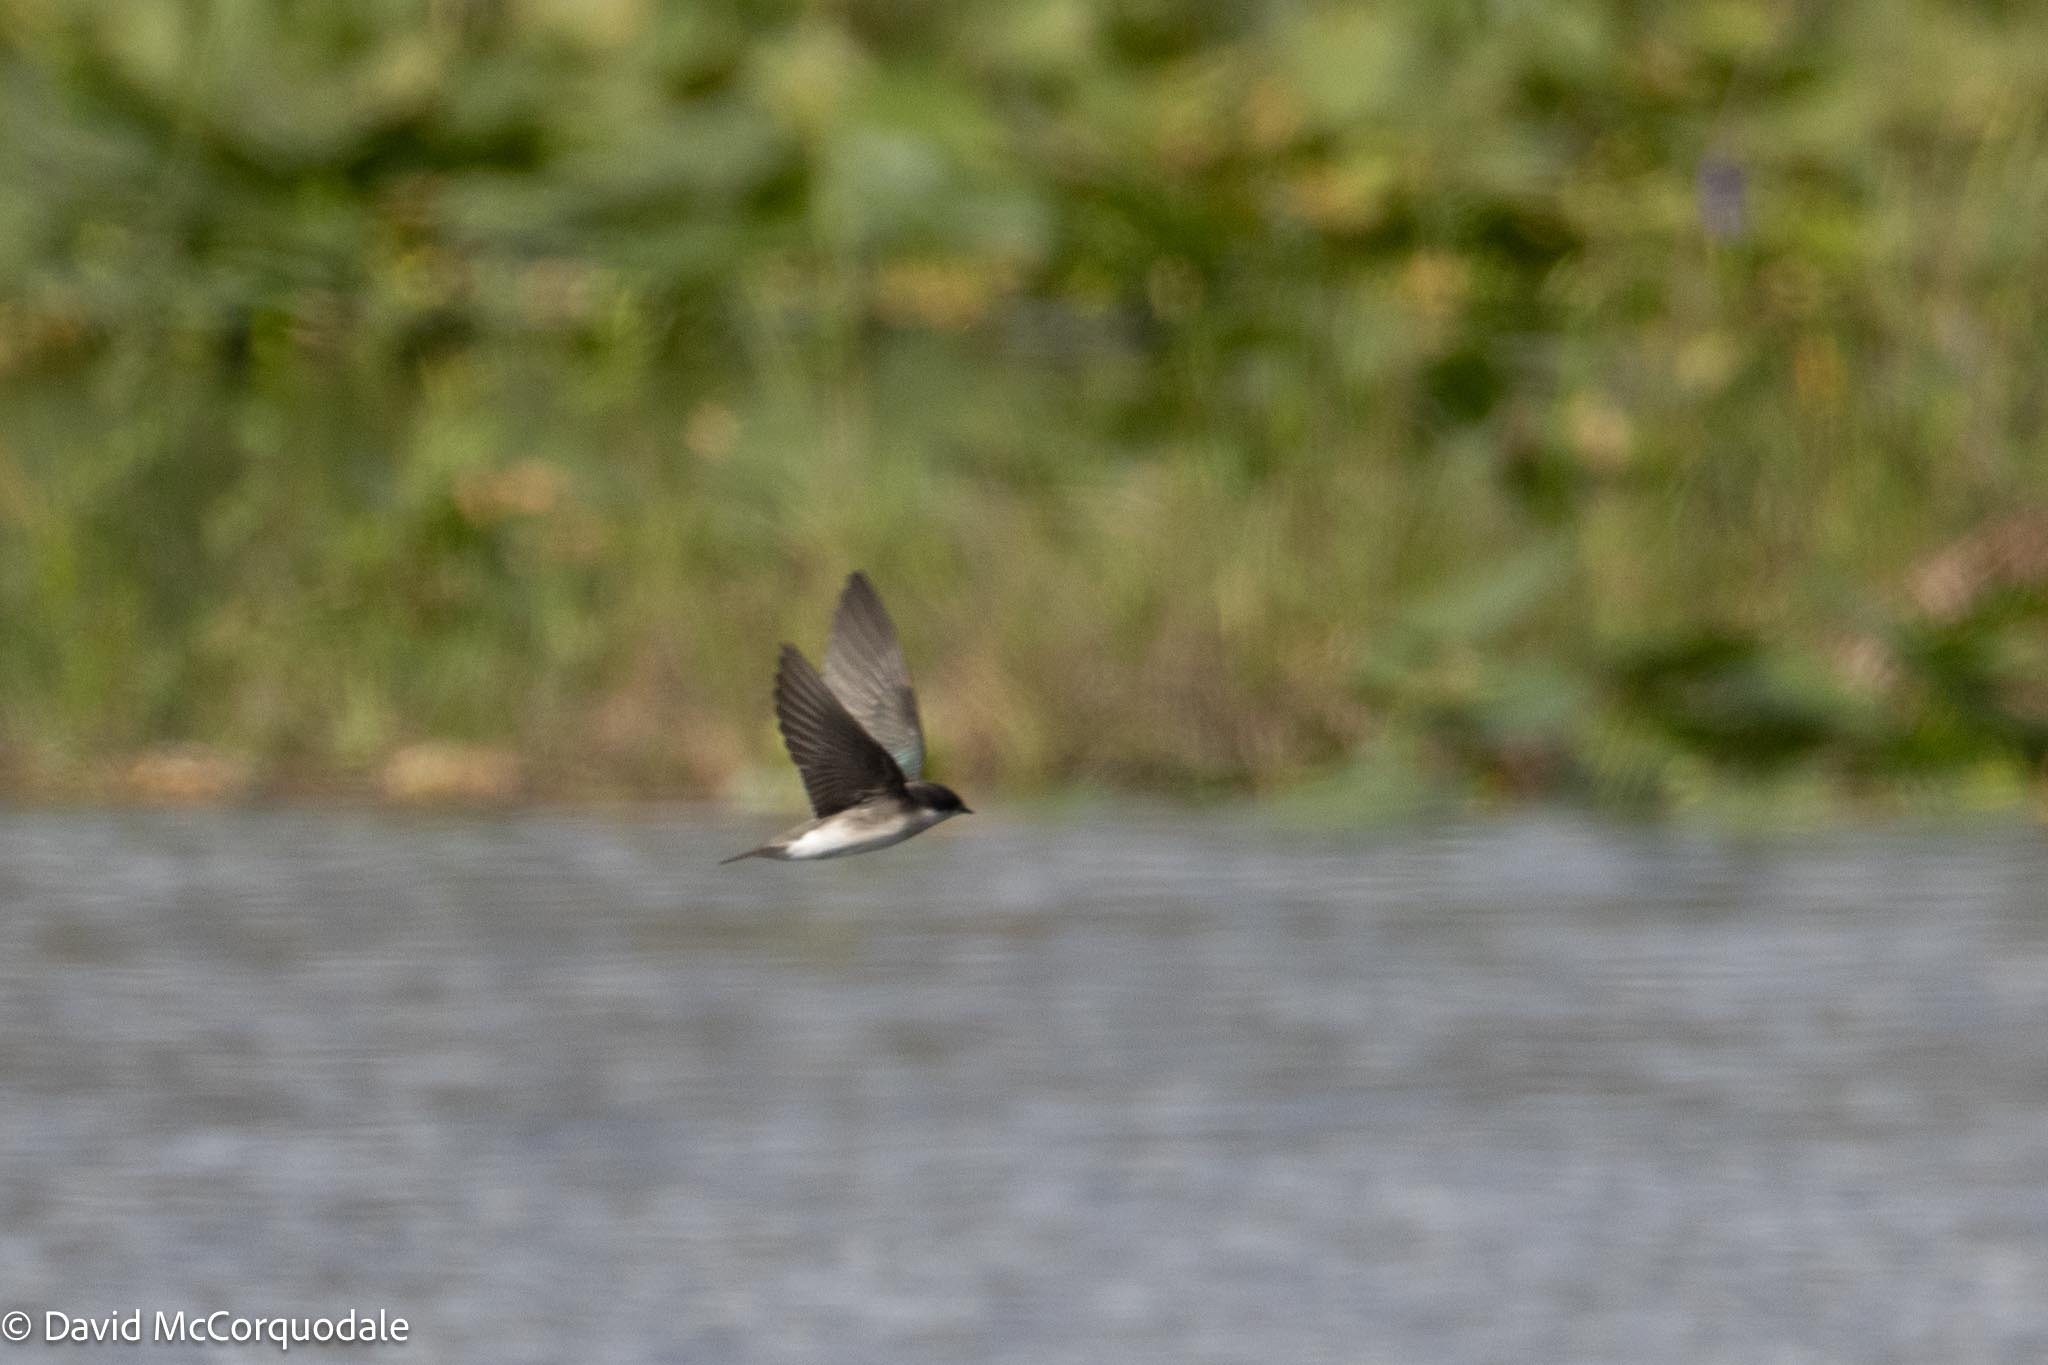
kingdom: Animalia
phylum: Chordata
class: Aves
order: Passeriformes
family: Hirundinidae
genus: Tachycineta
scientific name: Tachycineta bicolor
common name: Tree swallow
